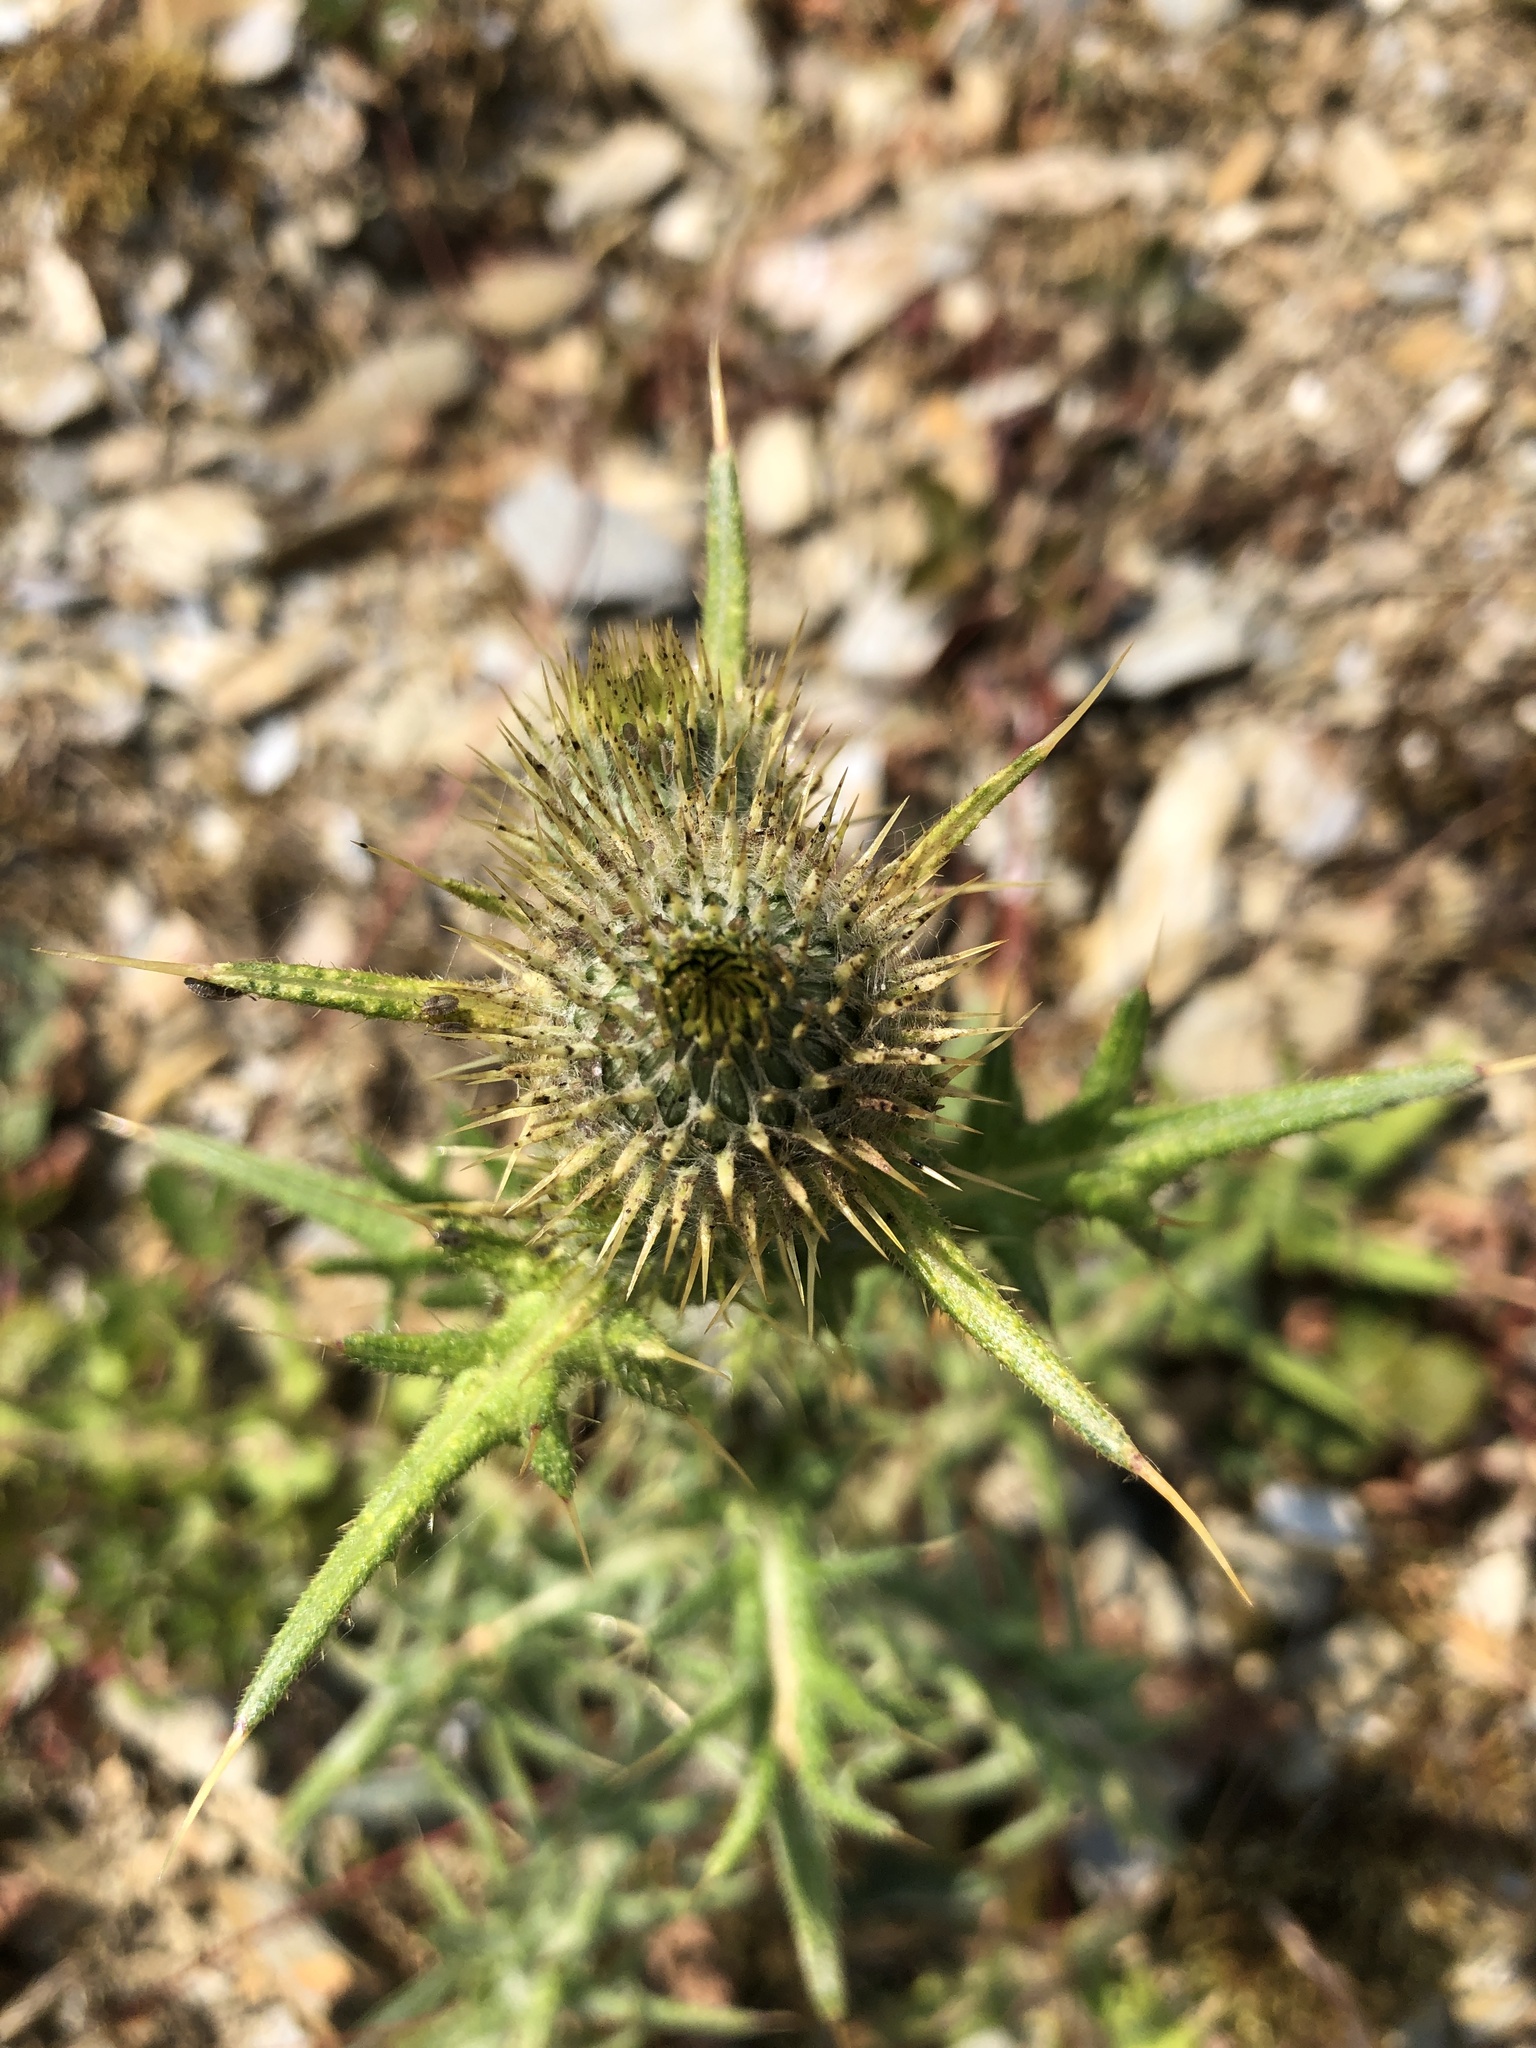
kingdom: Plantae
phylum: Tracheophyta
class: Magnoliopsida
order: Asterales
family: Asteraceae
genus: Cirsium
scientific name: Cirsium vulgare
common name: Bull thistle
